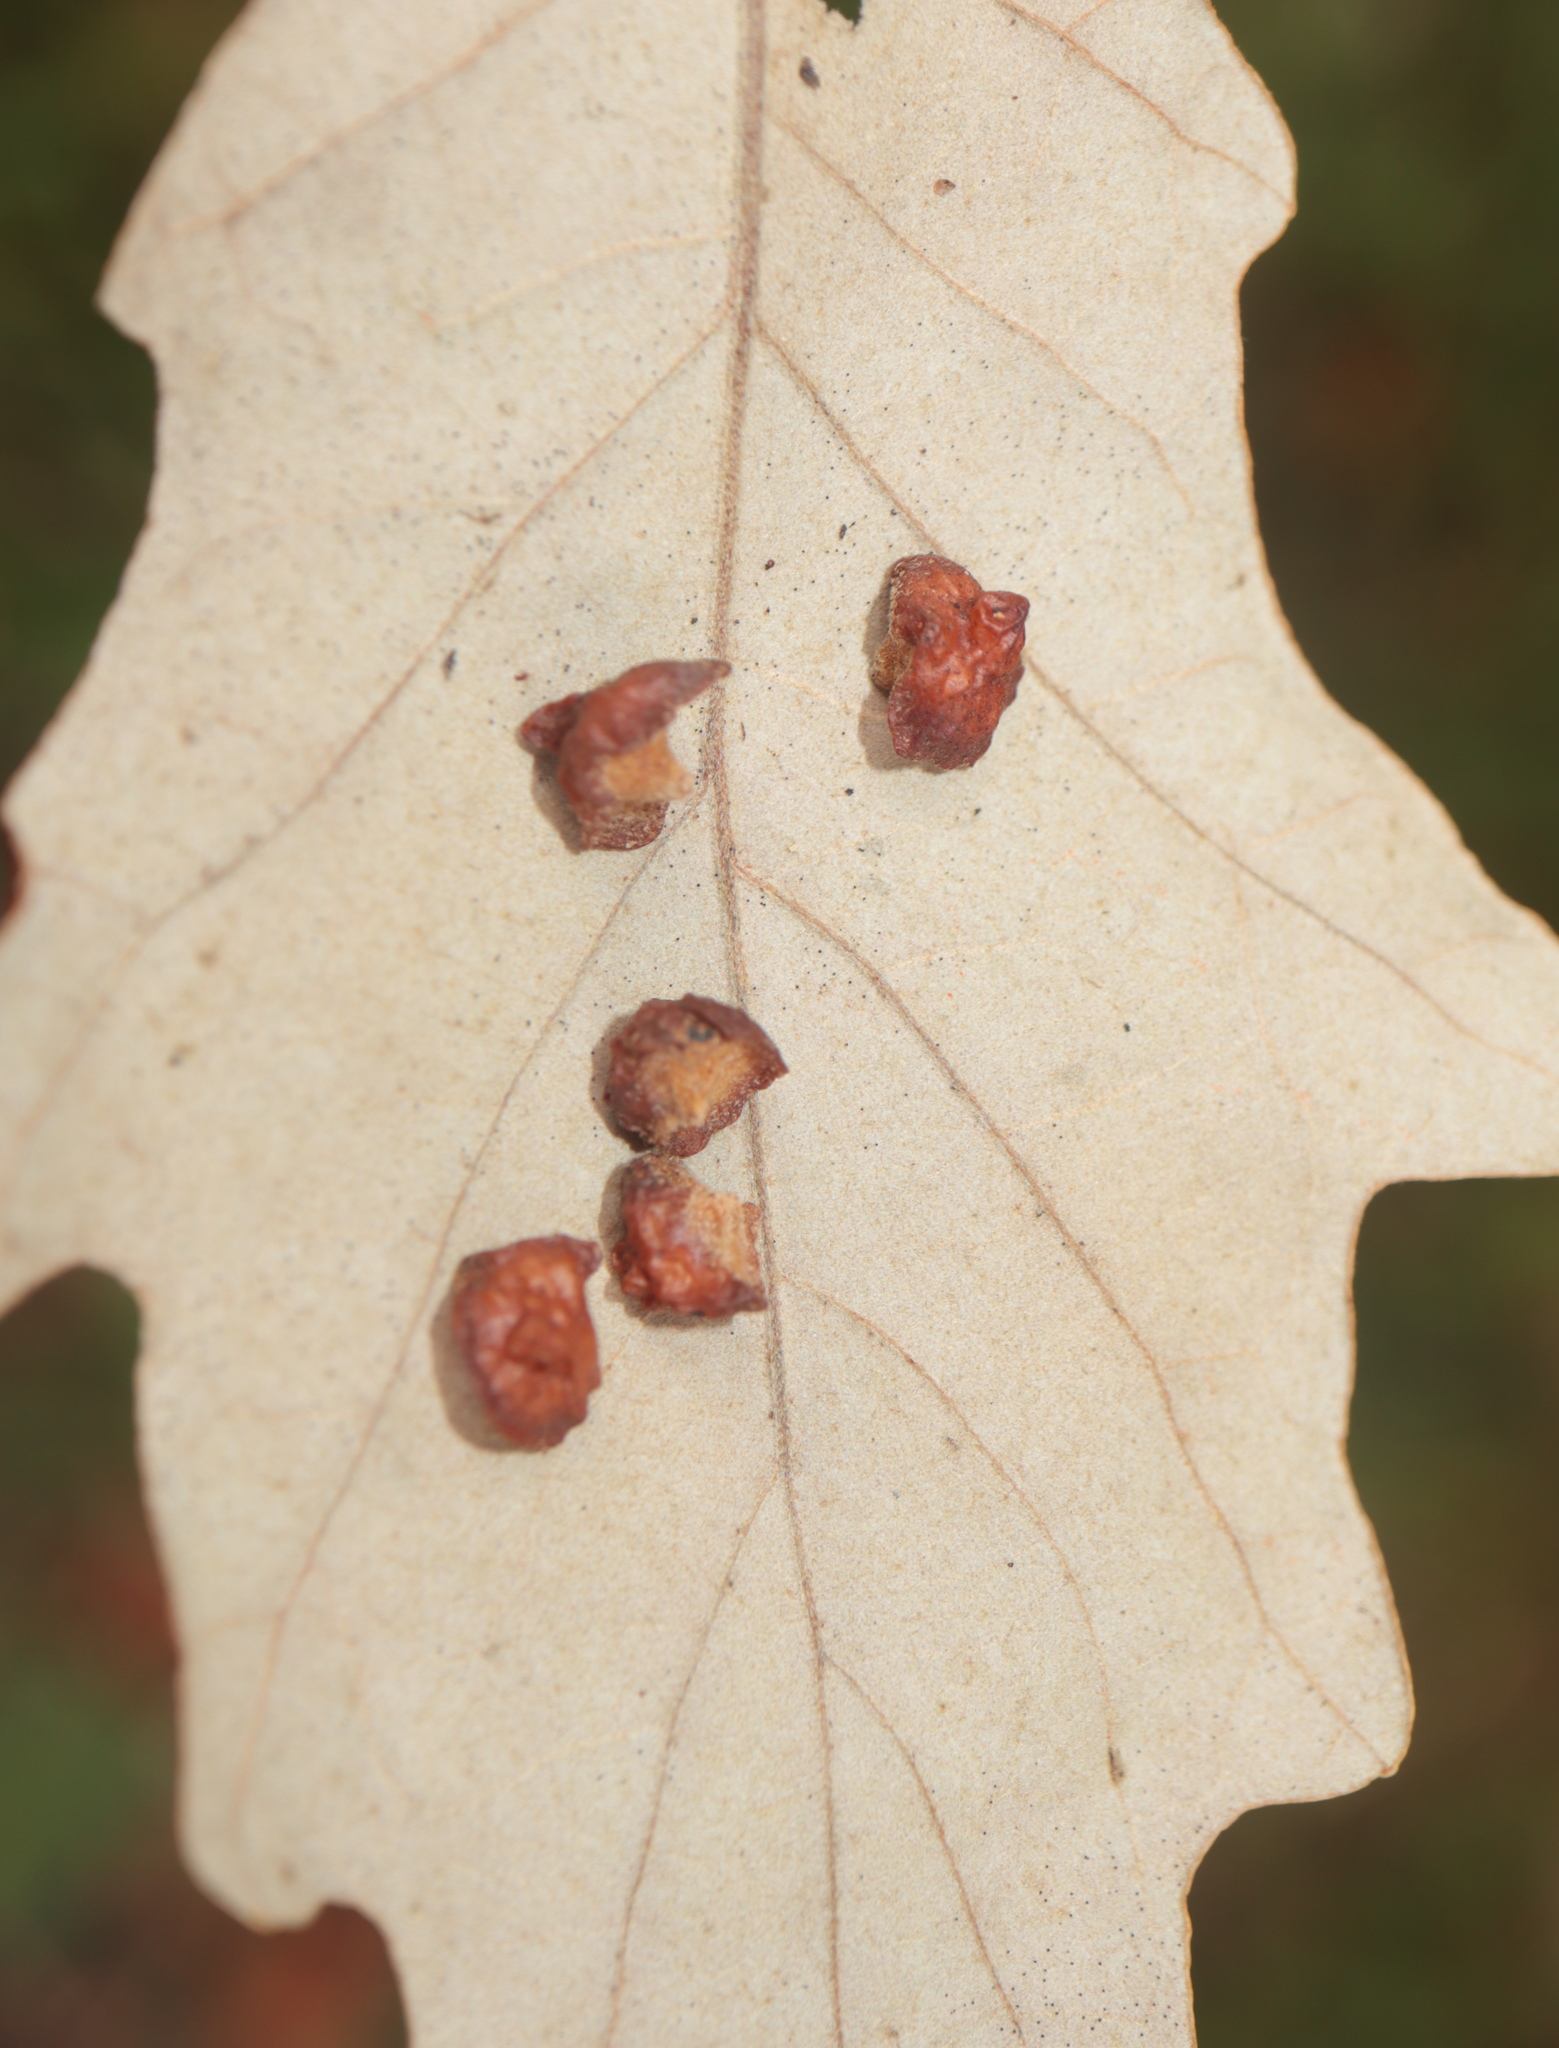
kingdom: Animalia
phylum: Arthropoda
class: Insecta
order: Hymenoptera
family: Cynipidae
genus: Andricus
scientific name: Andricus
